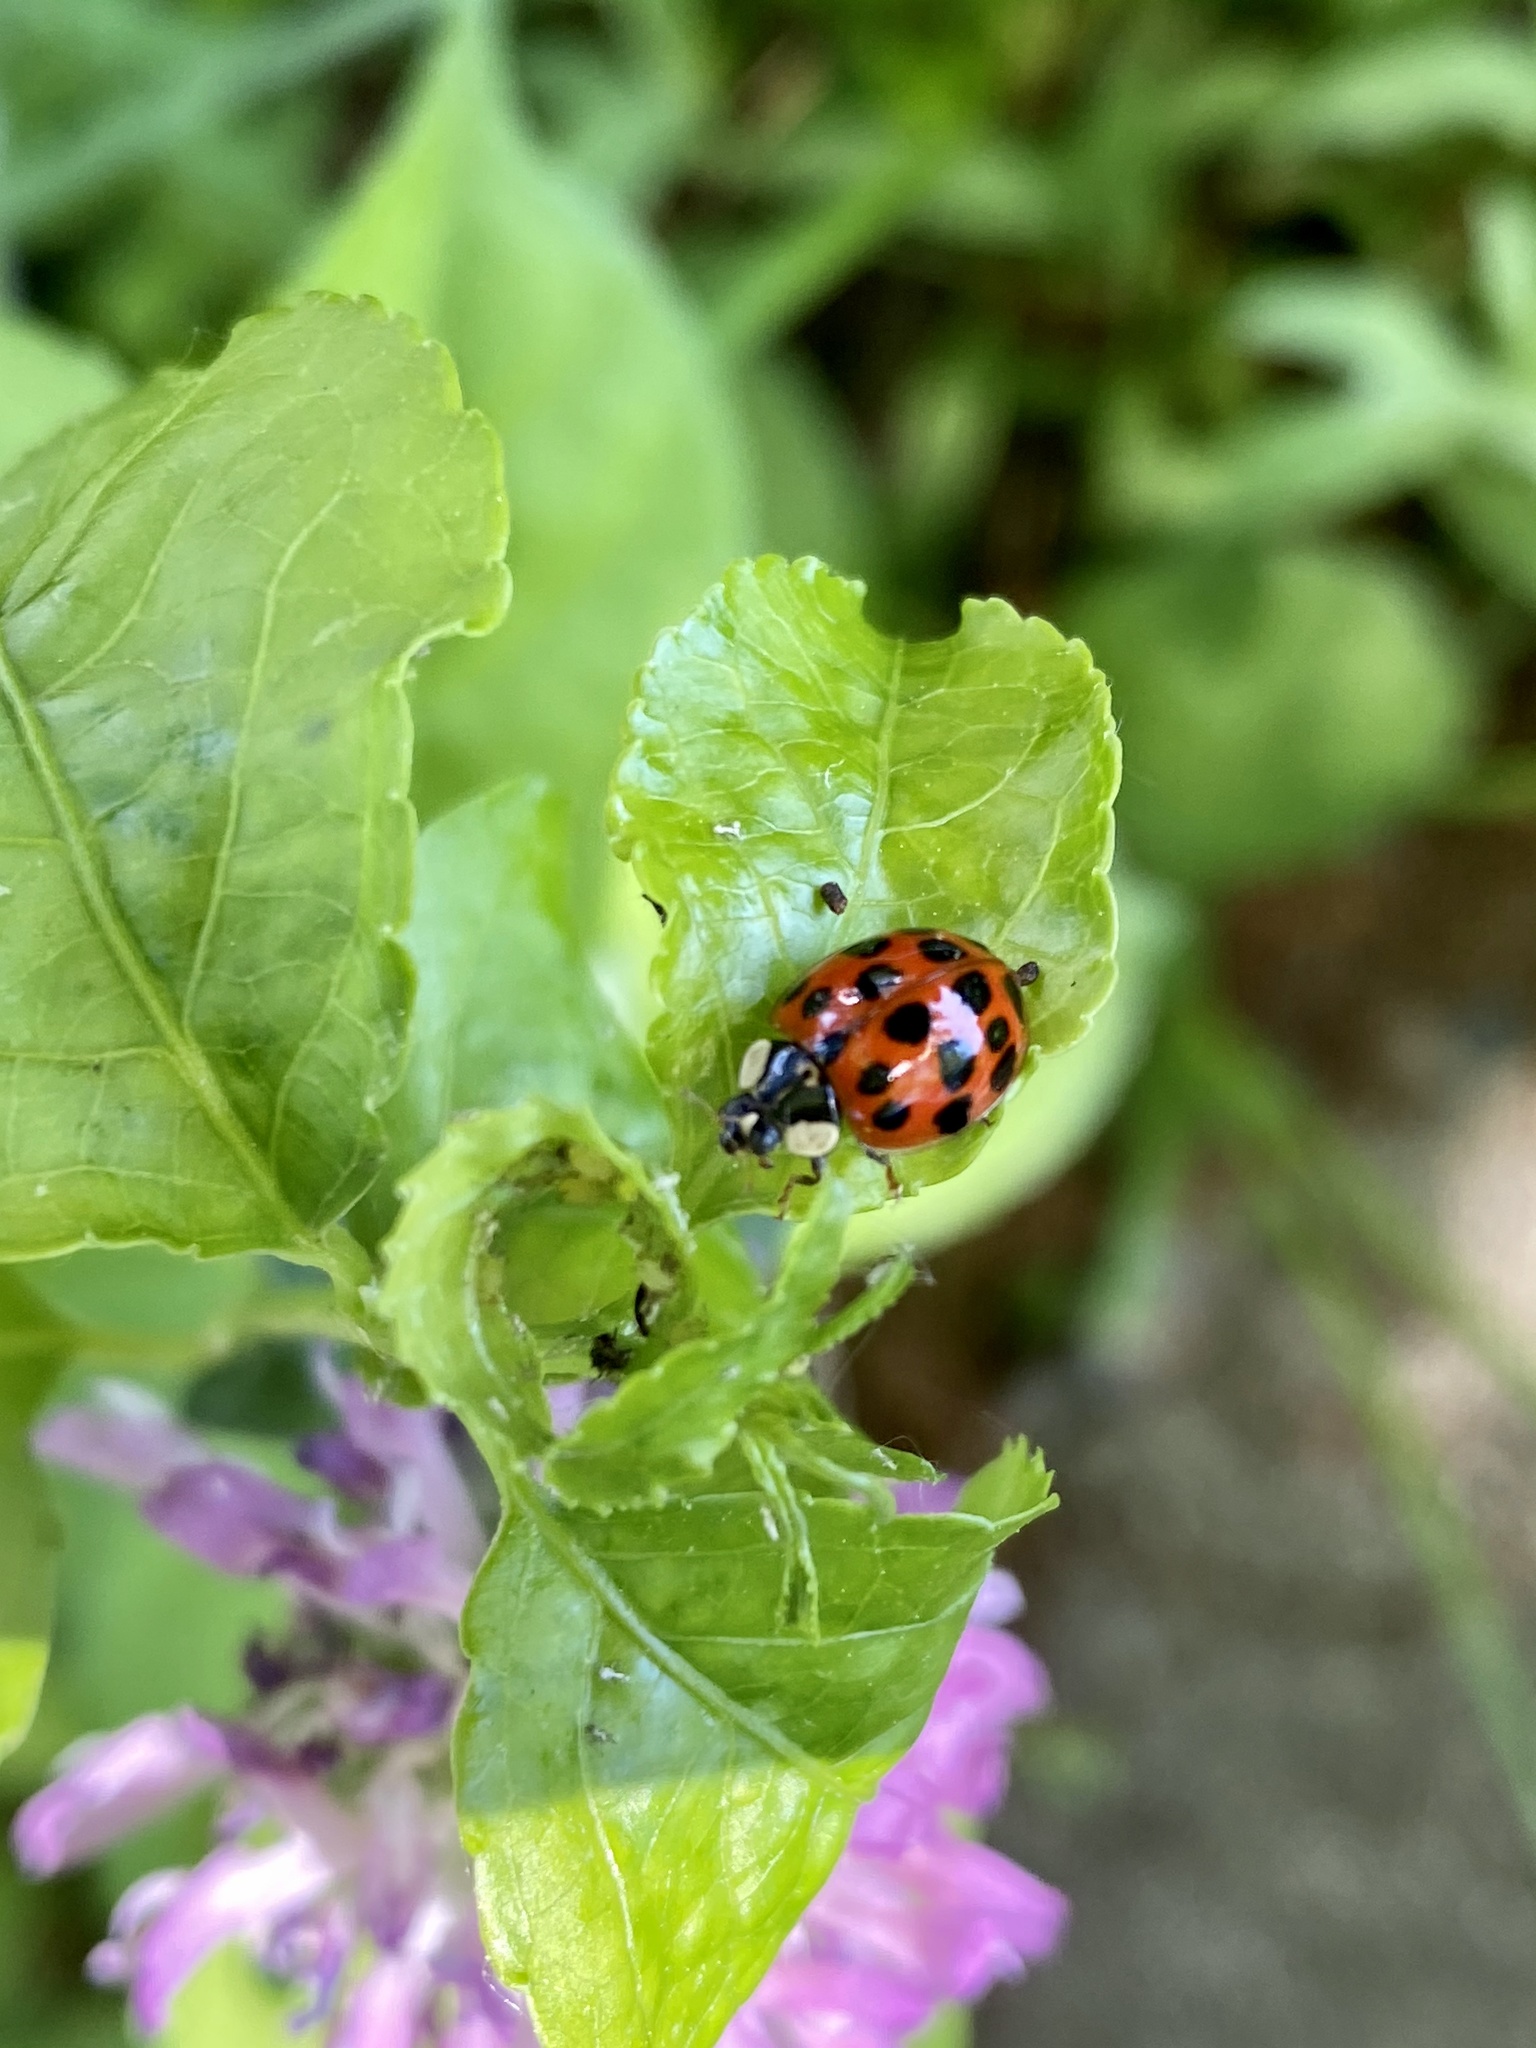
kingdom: Animalia
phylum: Arthropoda
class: Insecta
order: Coleoptera
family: Coccinellidae
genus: Harmonia
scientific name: Harmonia axyridis
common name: Harlequin ladybird
